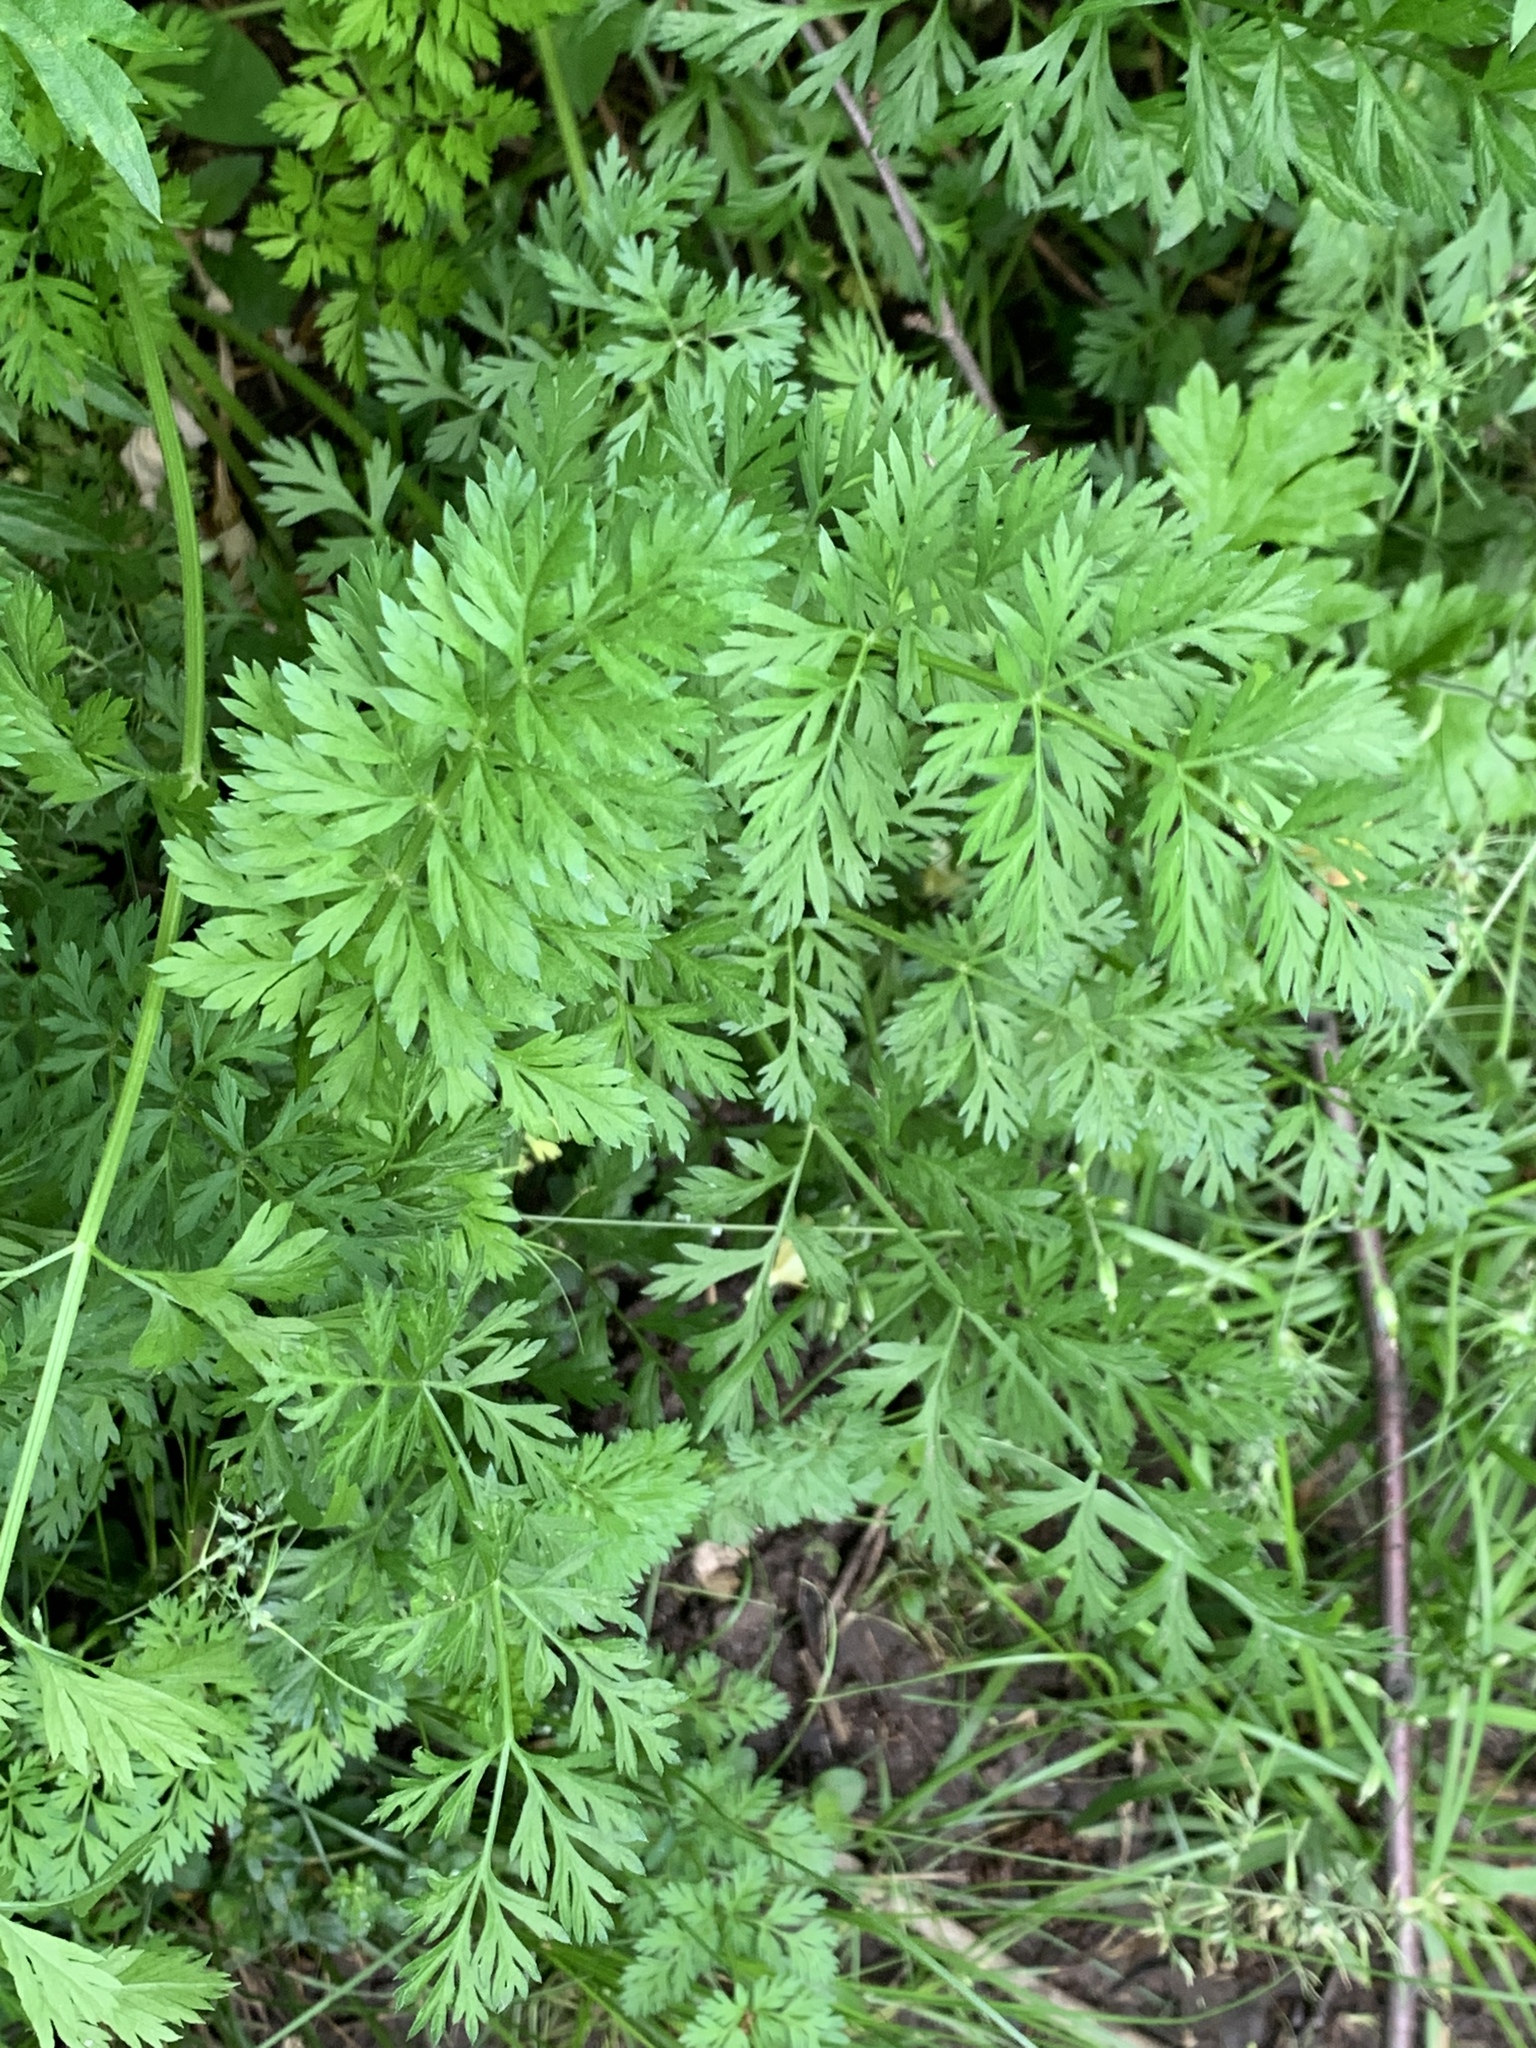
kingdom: Plantae
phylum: Tracheophyta
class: Magnoliopsida
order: Apiales
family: Apiaceae
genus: Daucus
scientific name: Daucus carota
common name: Wild carrot
